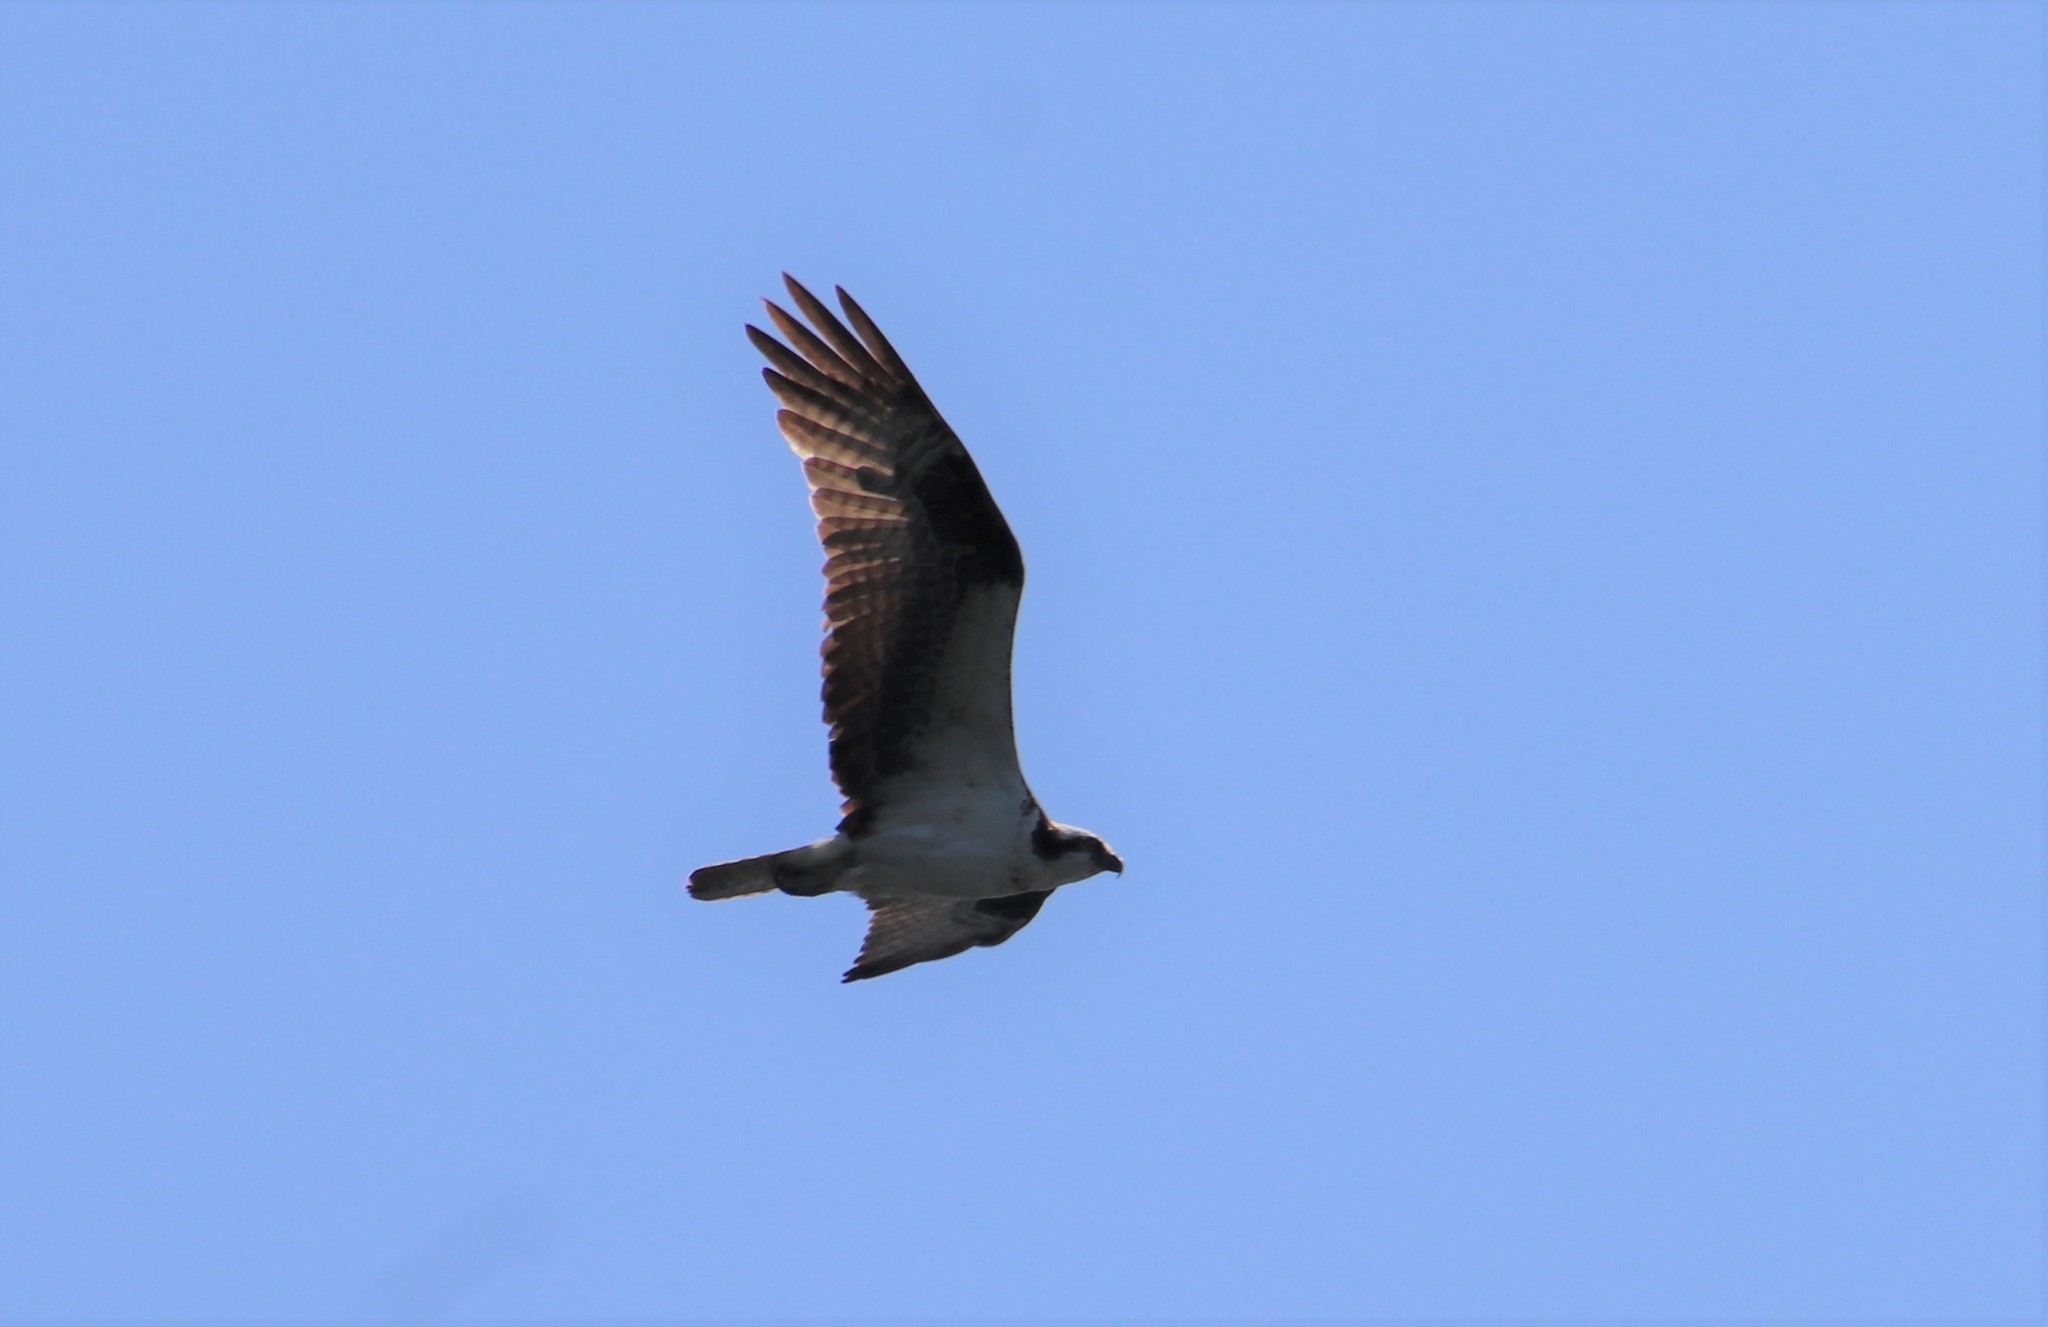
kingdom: Animalia
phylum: Chordata
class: Aves
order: Accipitriformes
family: Pandionidae
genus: Pandion
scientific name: Pandion haliaetus
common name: Osprey
